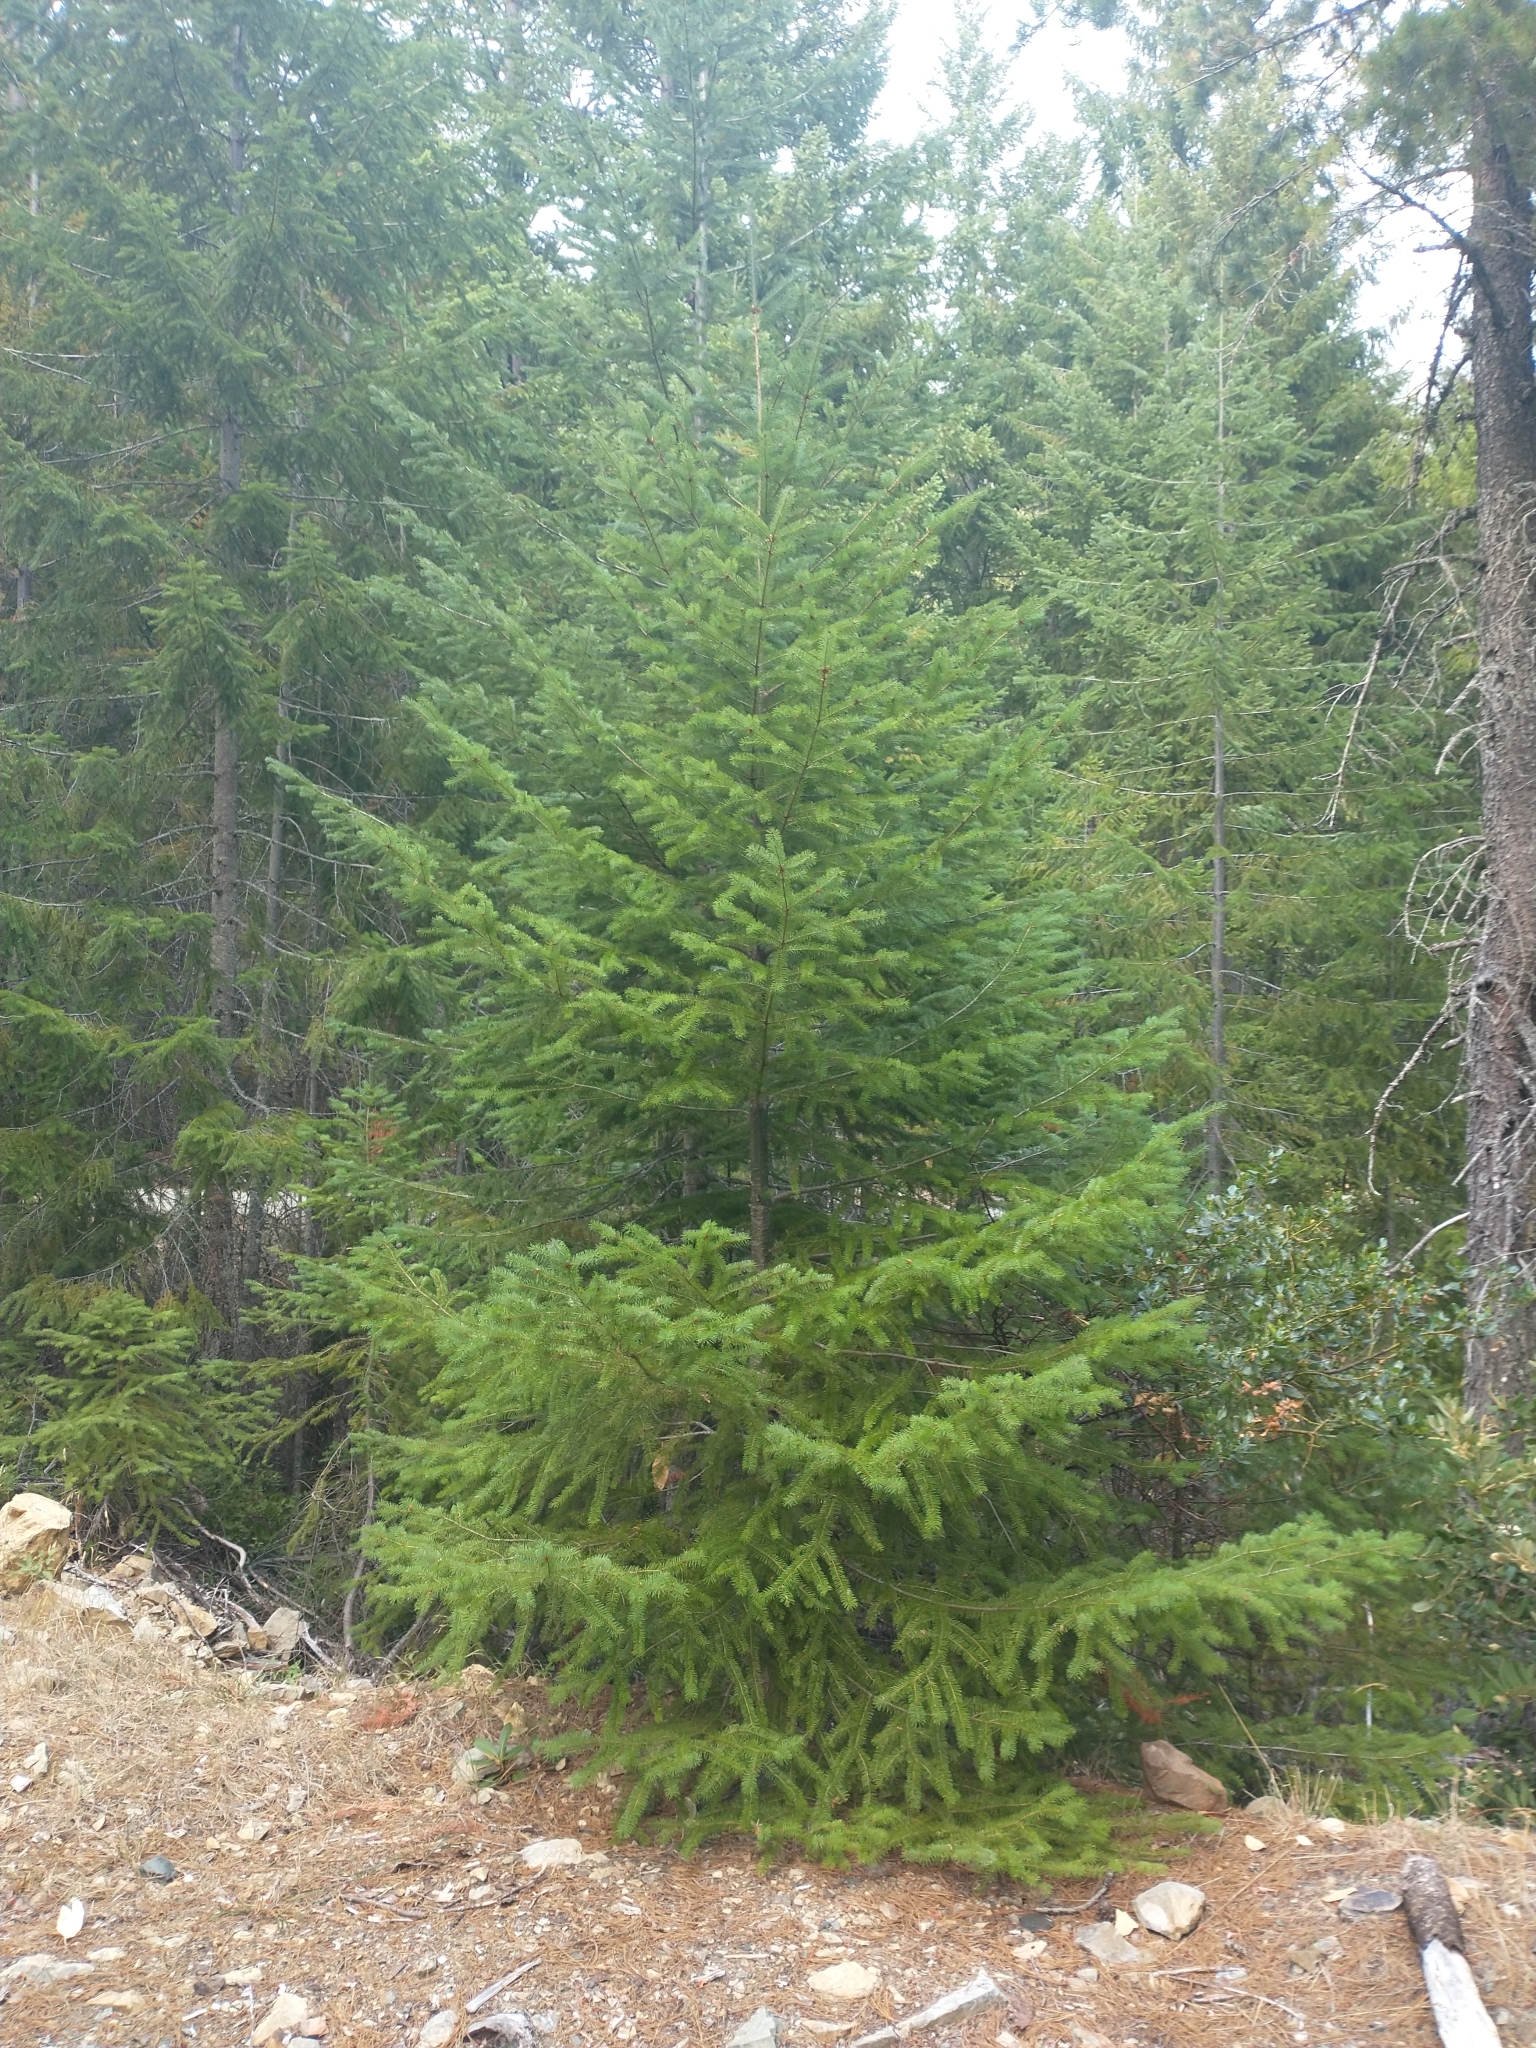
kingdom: Plantae
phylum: Tracheophyta
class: Pinopsida
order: Pinales
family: Pinaceae
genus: Pseudotsuga
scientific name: Pseudotsuga menziesii
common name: Douglas fir
